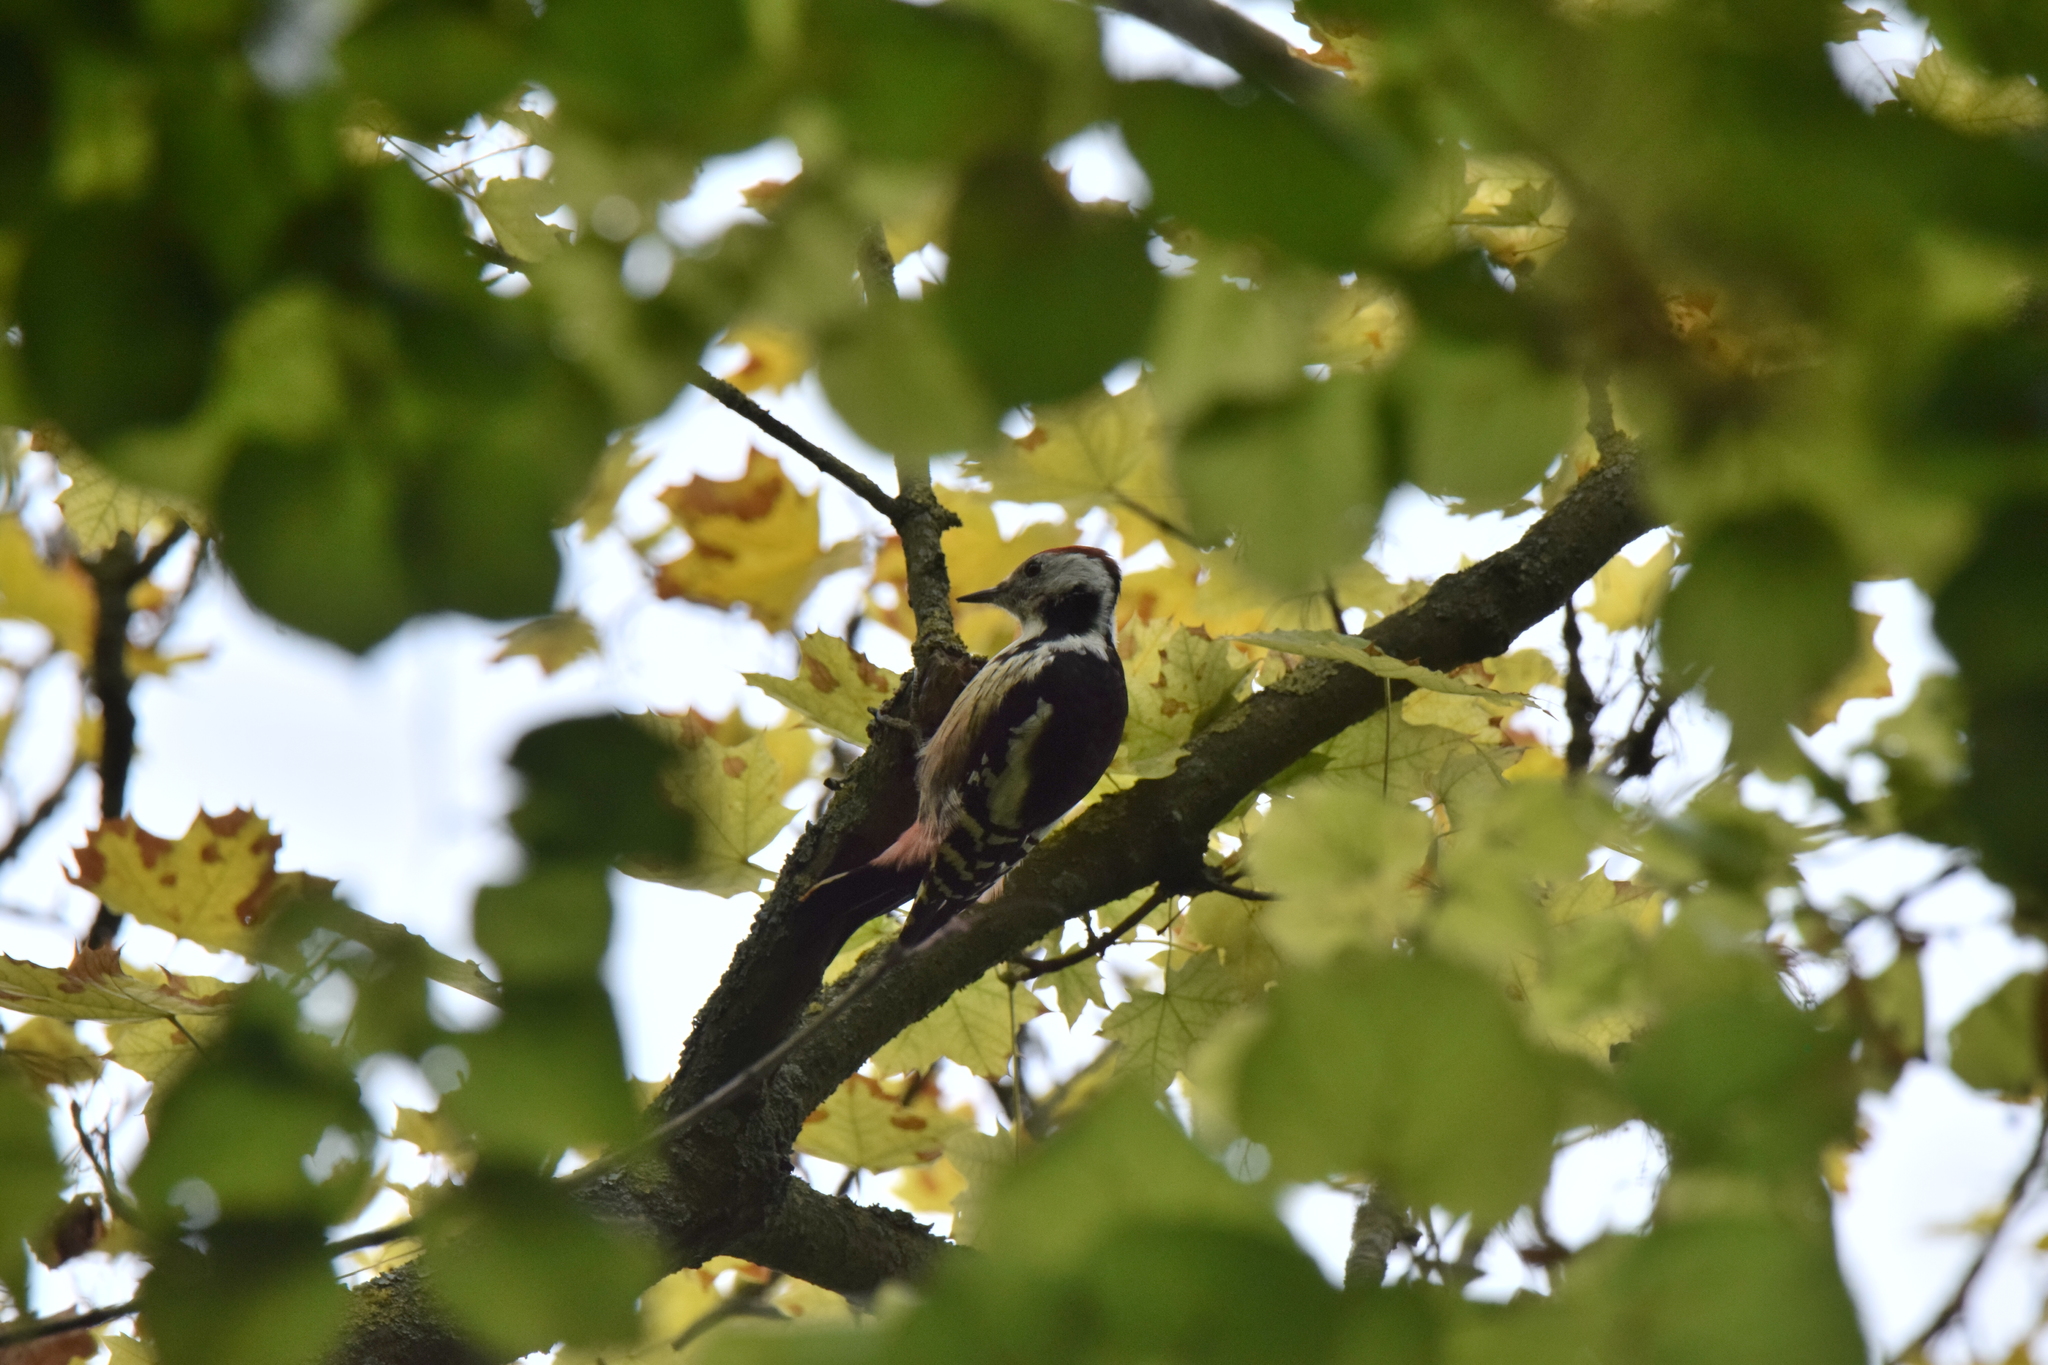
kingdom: Animalia
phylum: Chordata
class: Aves
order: Piciformes
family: Picidae
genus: Dendrocoptes
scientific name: Dendrocoptes medius
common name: Middle spotted woodpecker
